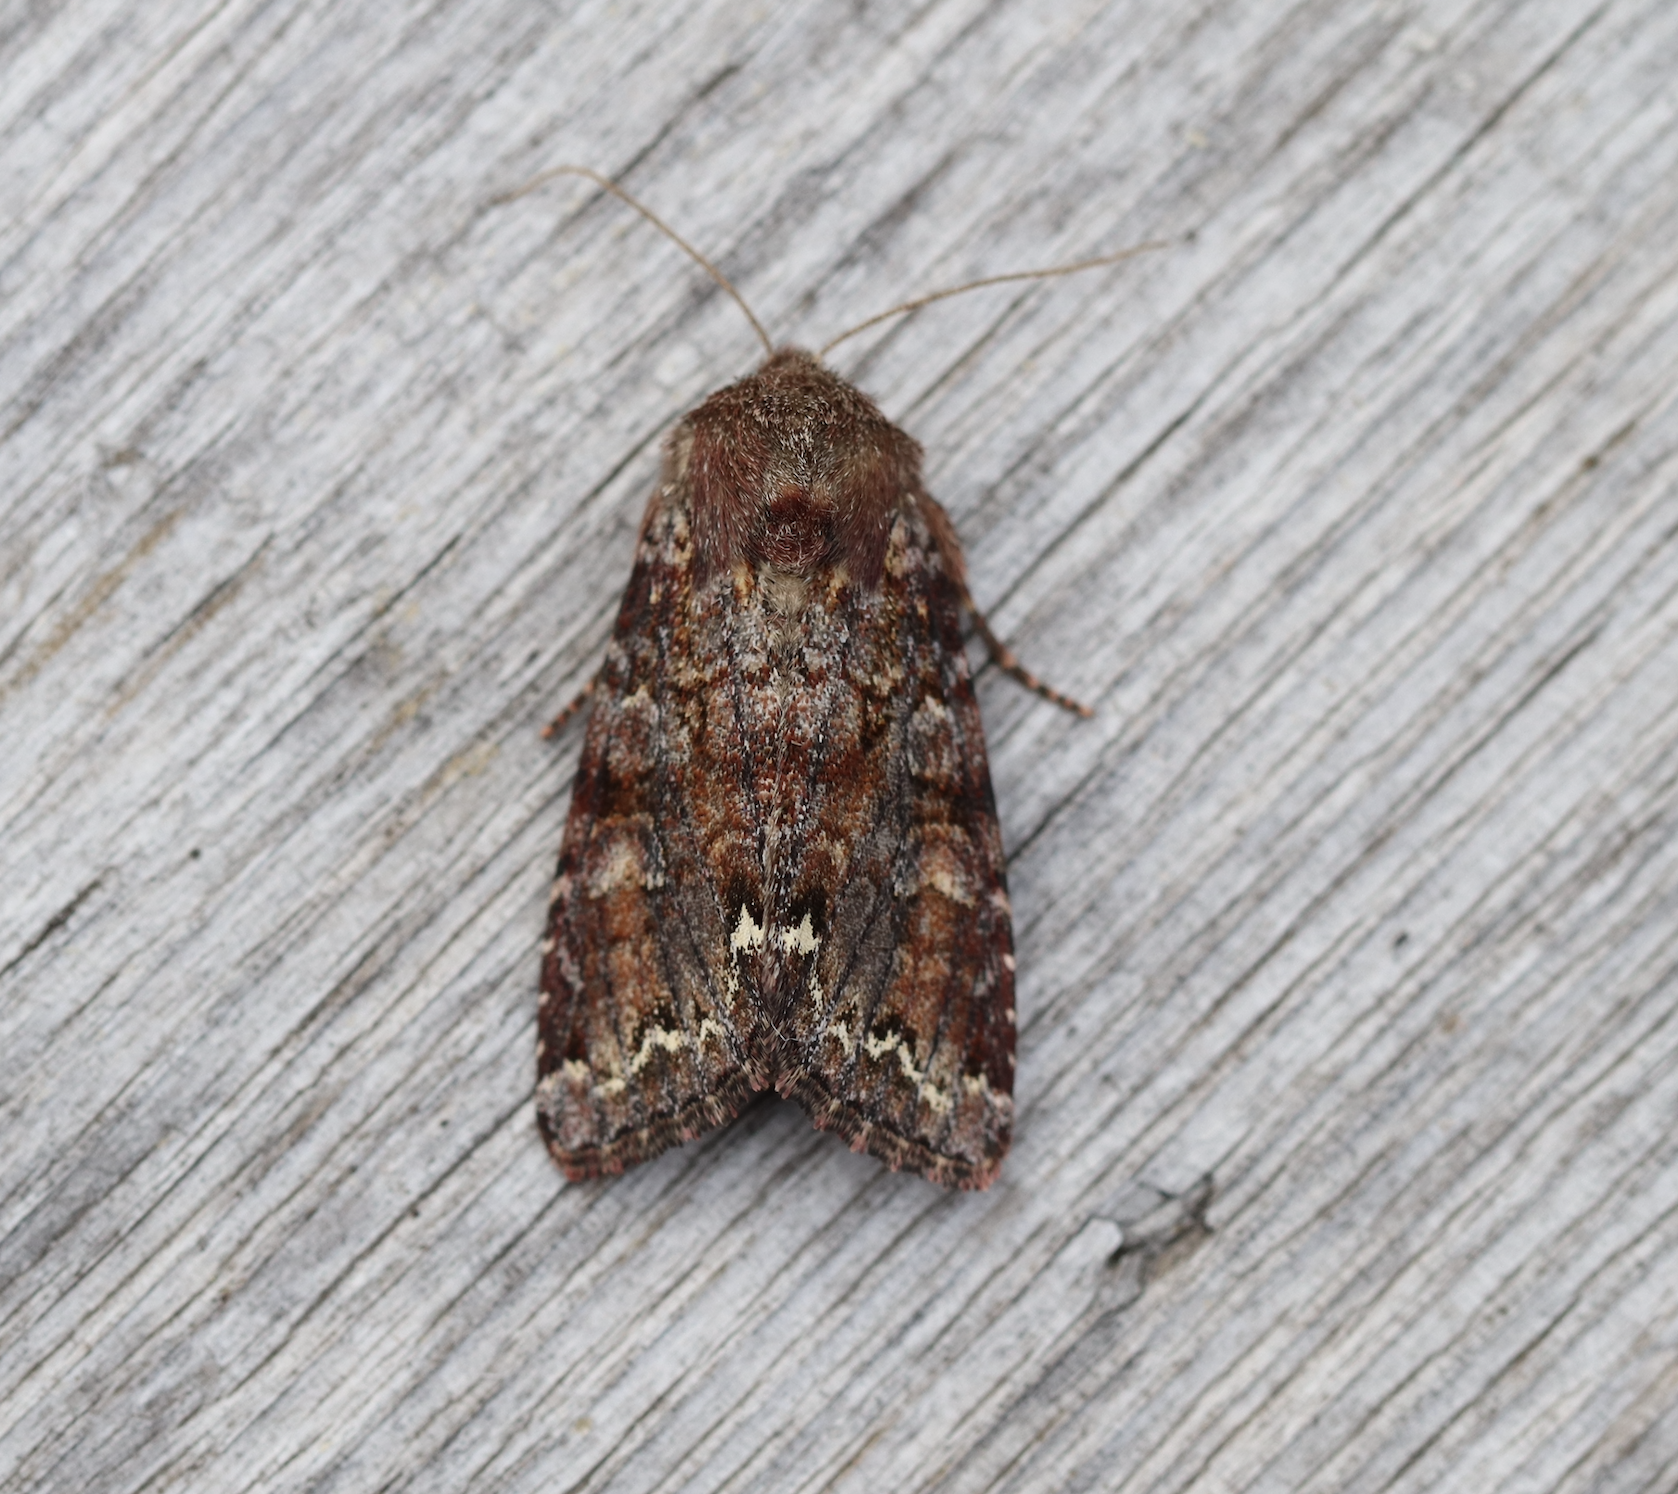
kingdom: Animalia
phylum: Arthropoda
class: Insecta
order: Lepidoptera
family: Noctuidae
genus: Ceramica
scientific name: Ceramica pisi
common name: Broom moth
